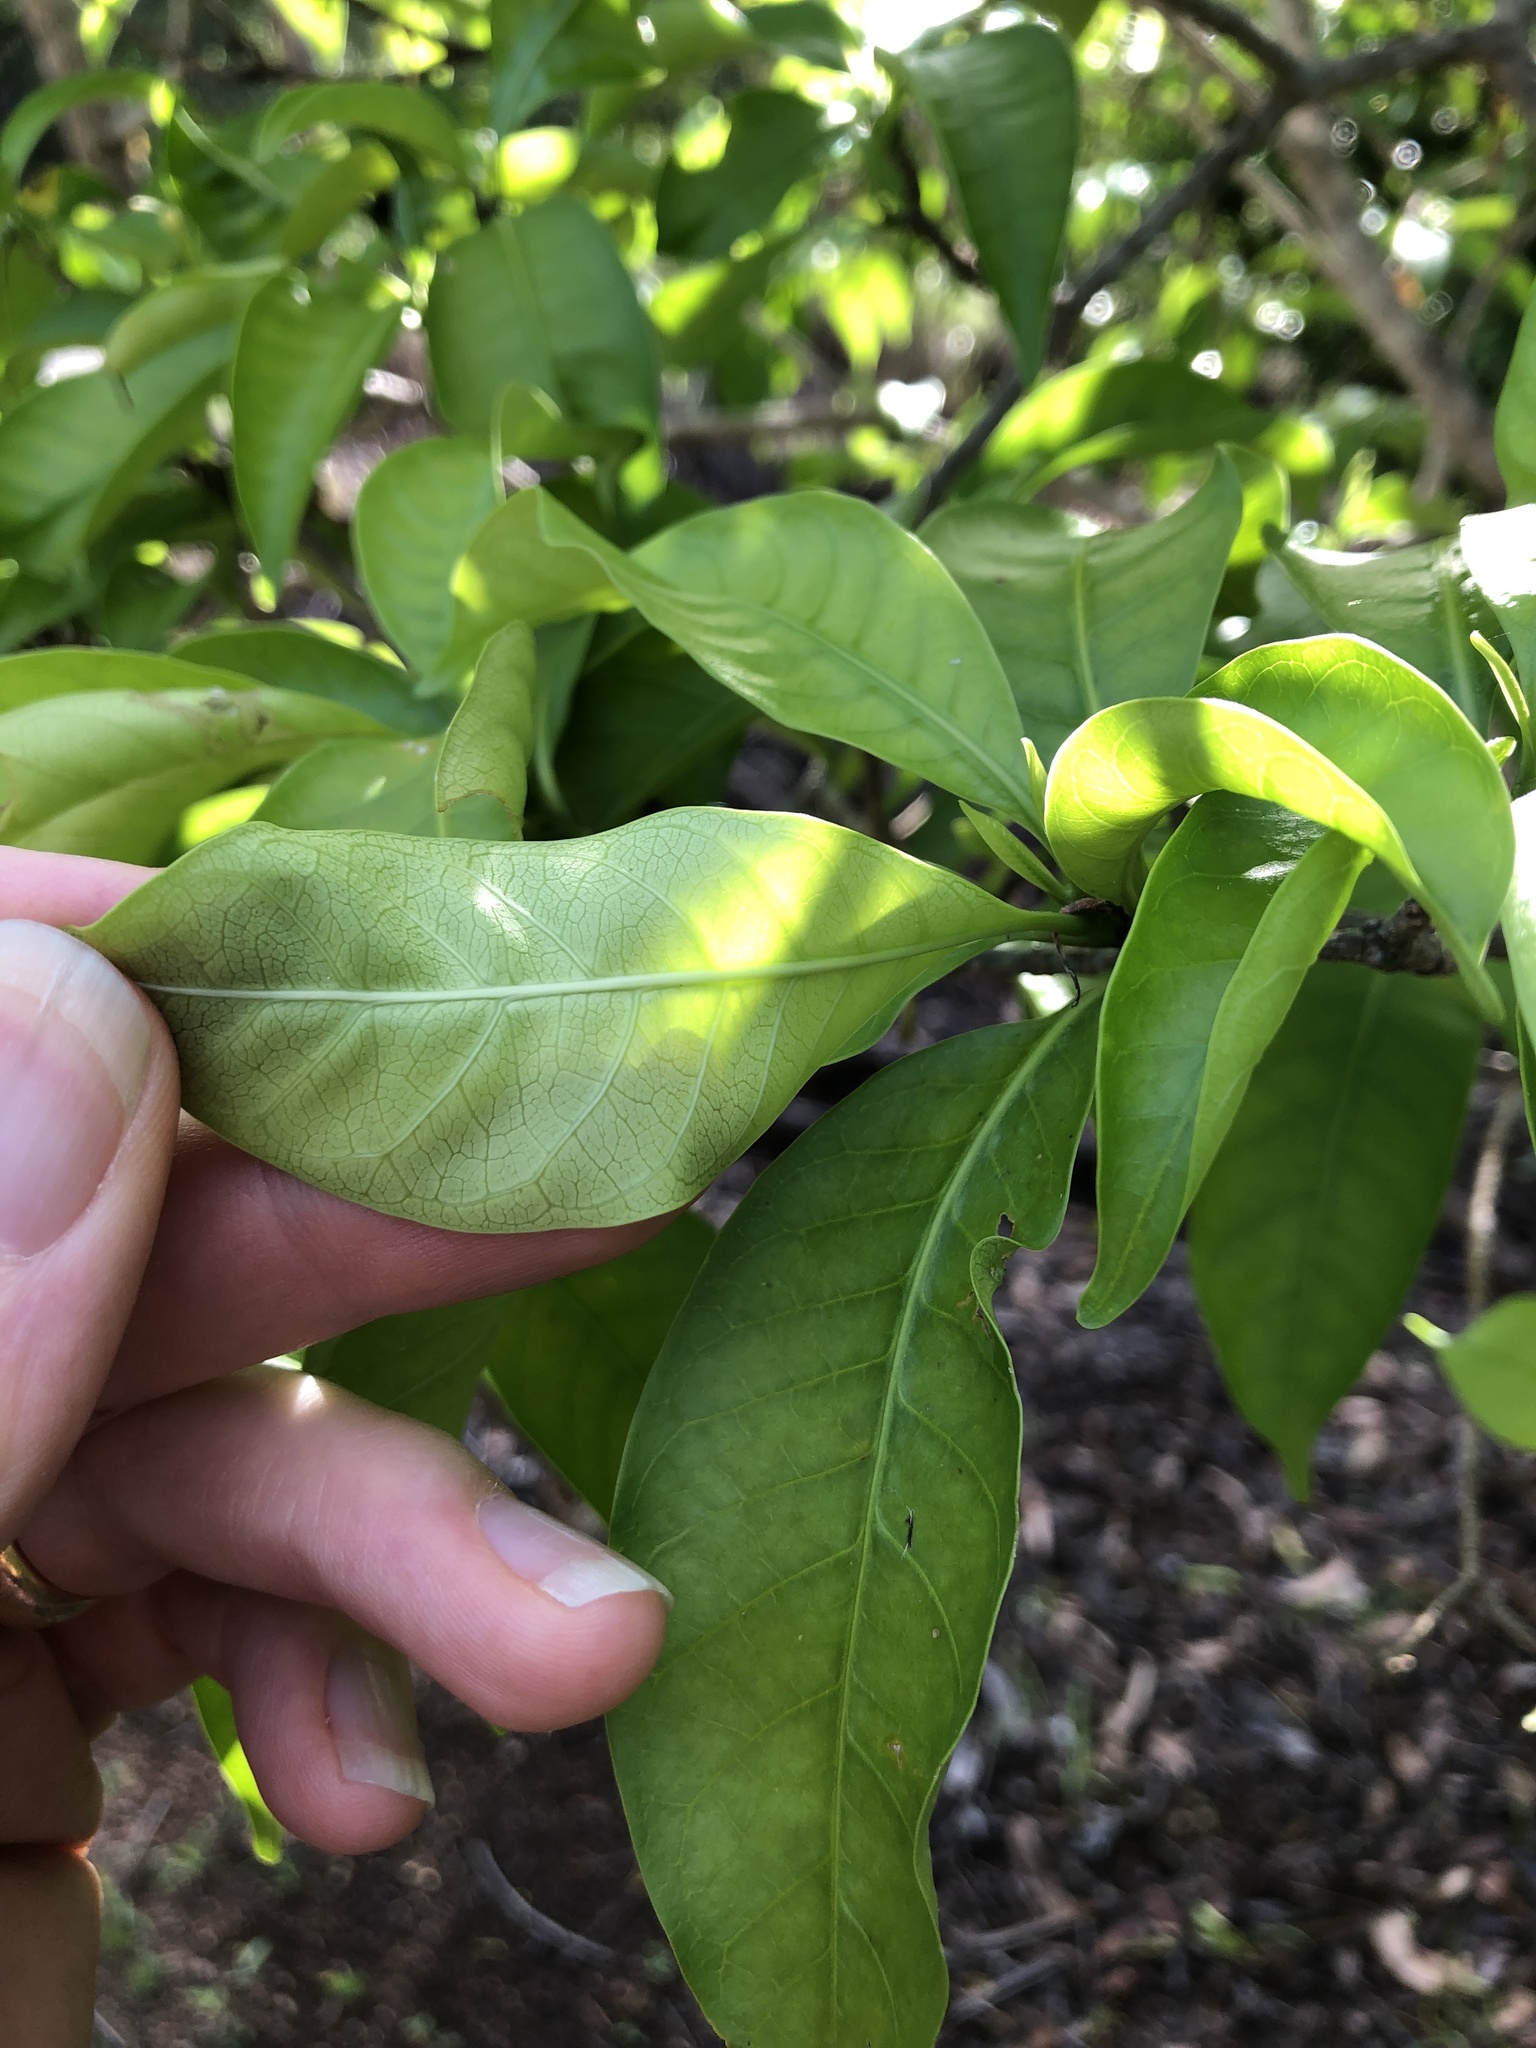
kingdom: Plantae
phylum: Tracheophyta
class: Magnoliopsida
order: Gentianales
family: Apocynaceae
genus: Tabernaemontana
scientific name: Tabernaemontana pandacaqui
